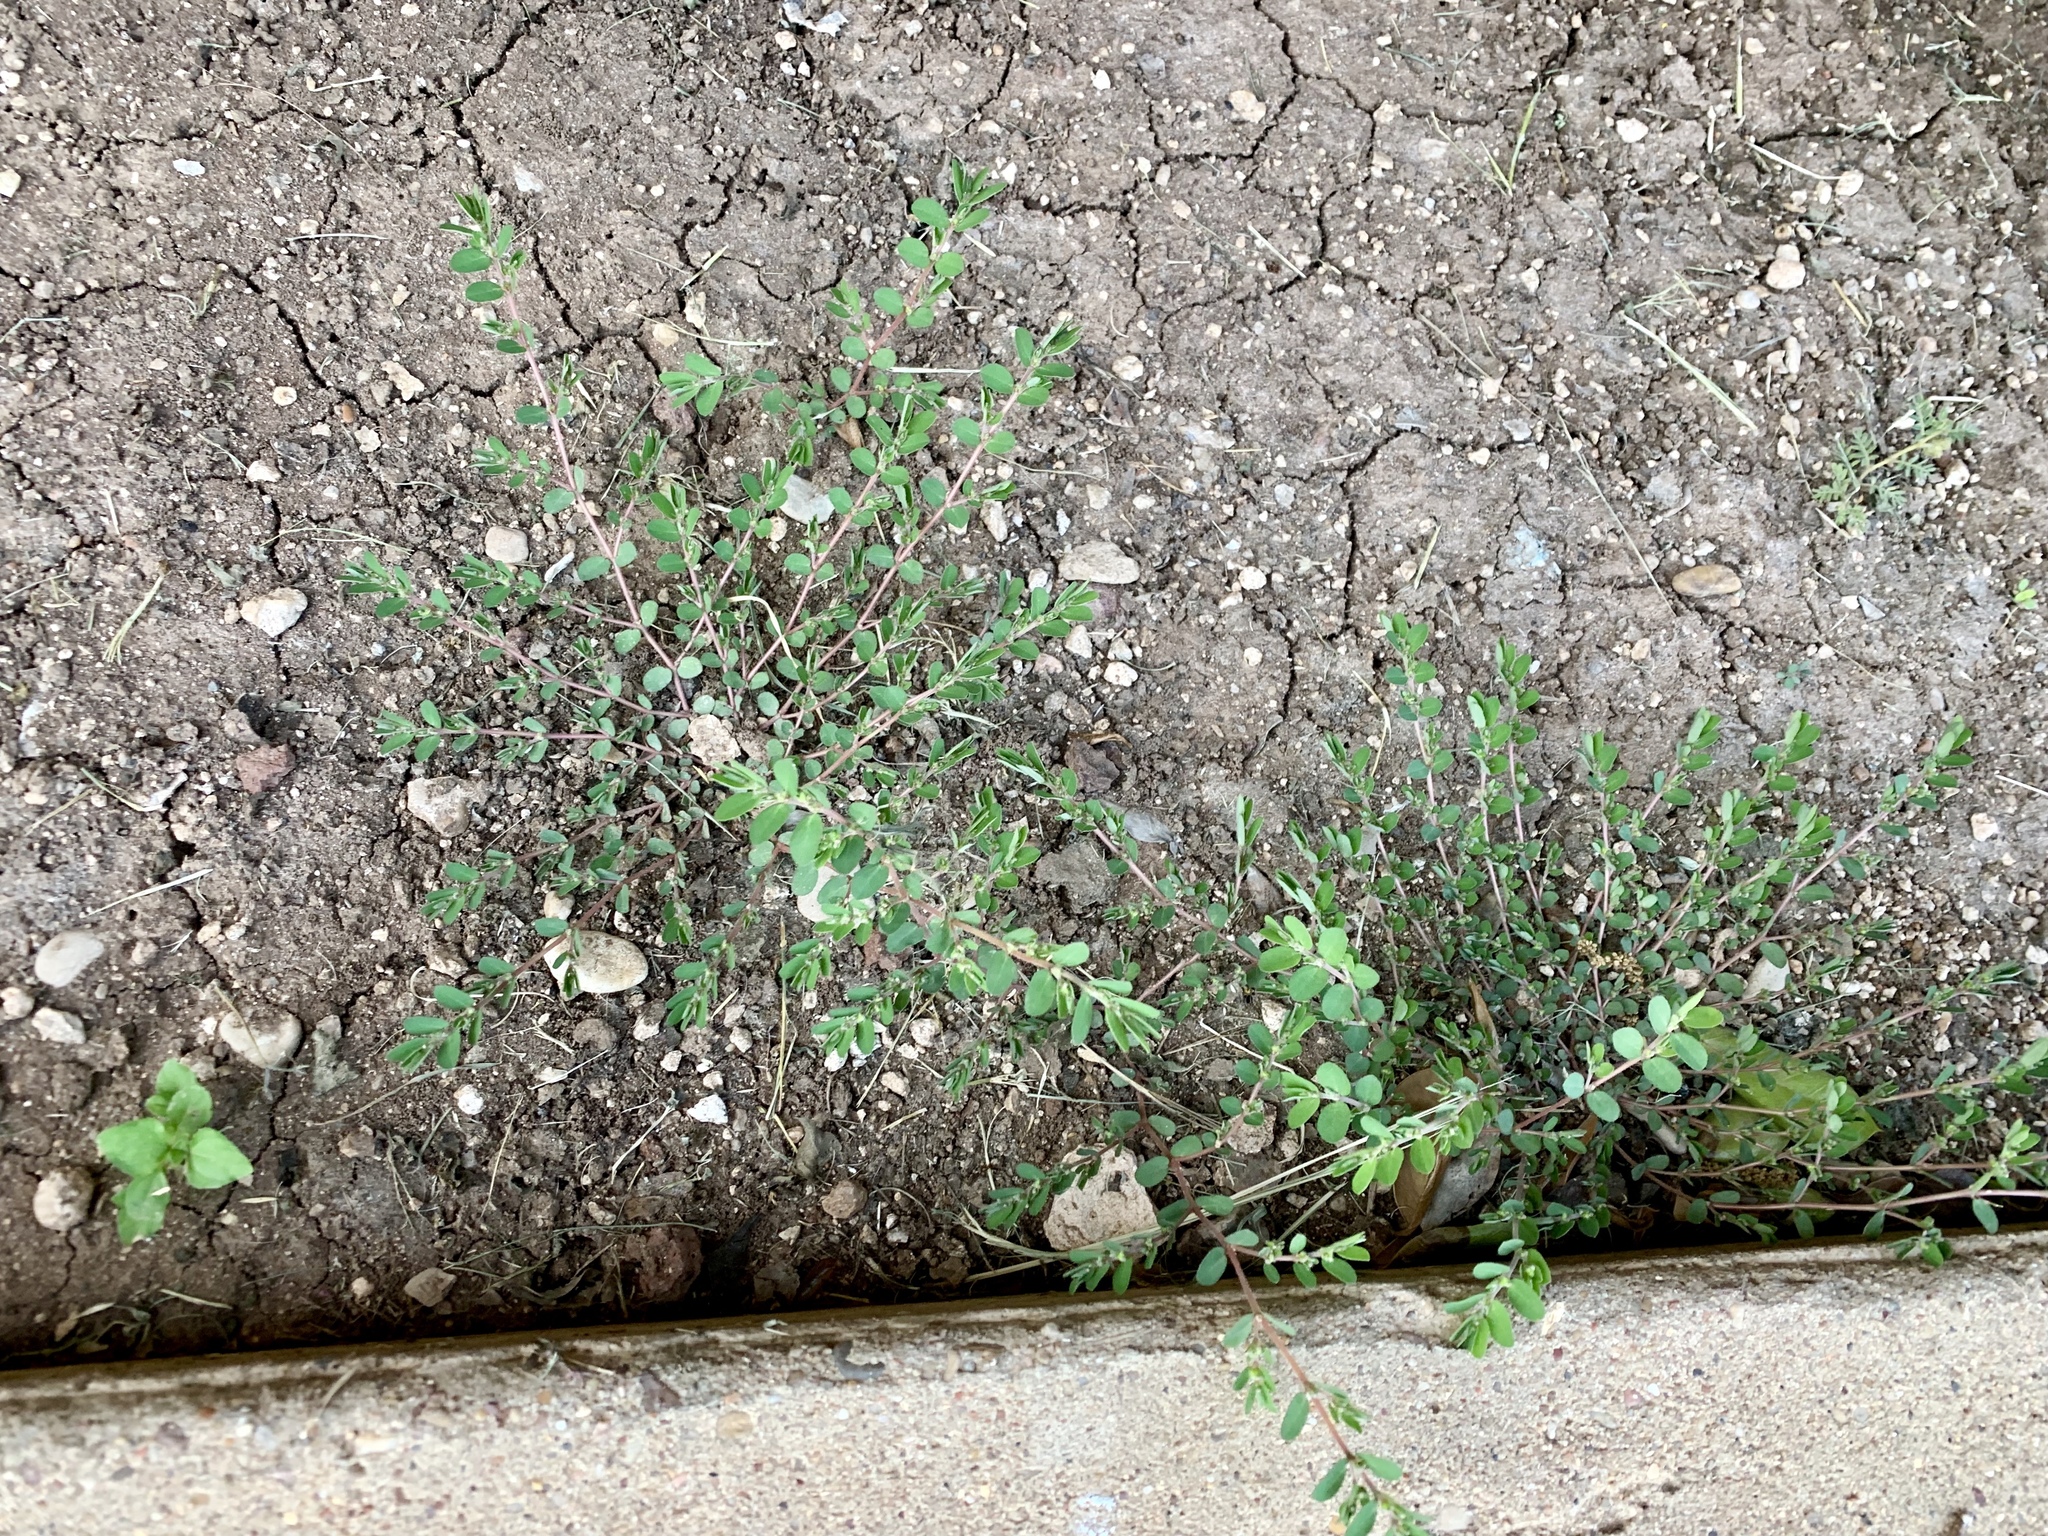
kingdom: Plantae
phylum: Tracheophyta
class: Magnoliopsida
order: Malpighiales
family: Euphorbiaceae
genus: Euphorbia
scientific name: Euphorbia prostrata
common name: Prostrate sandmat
